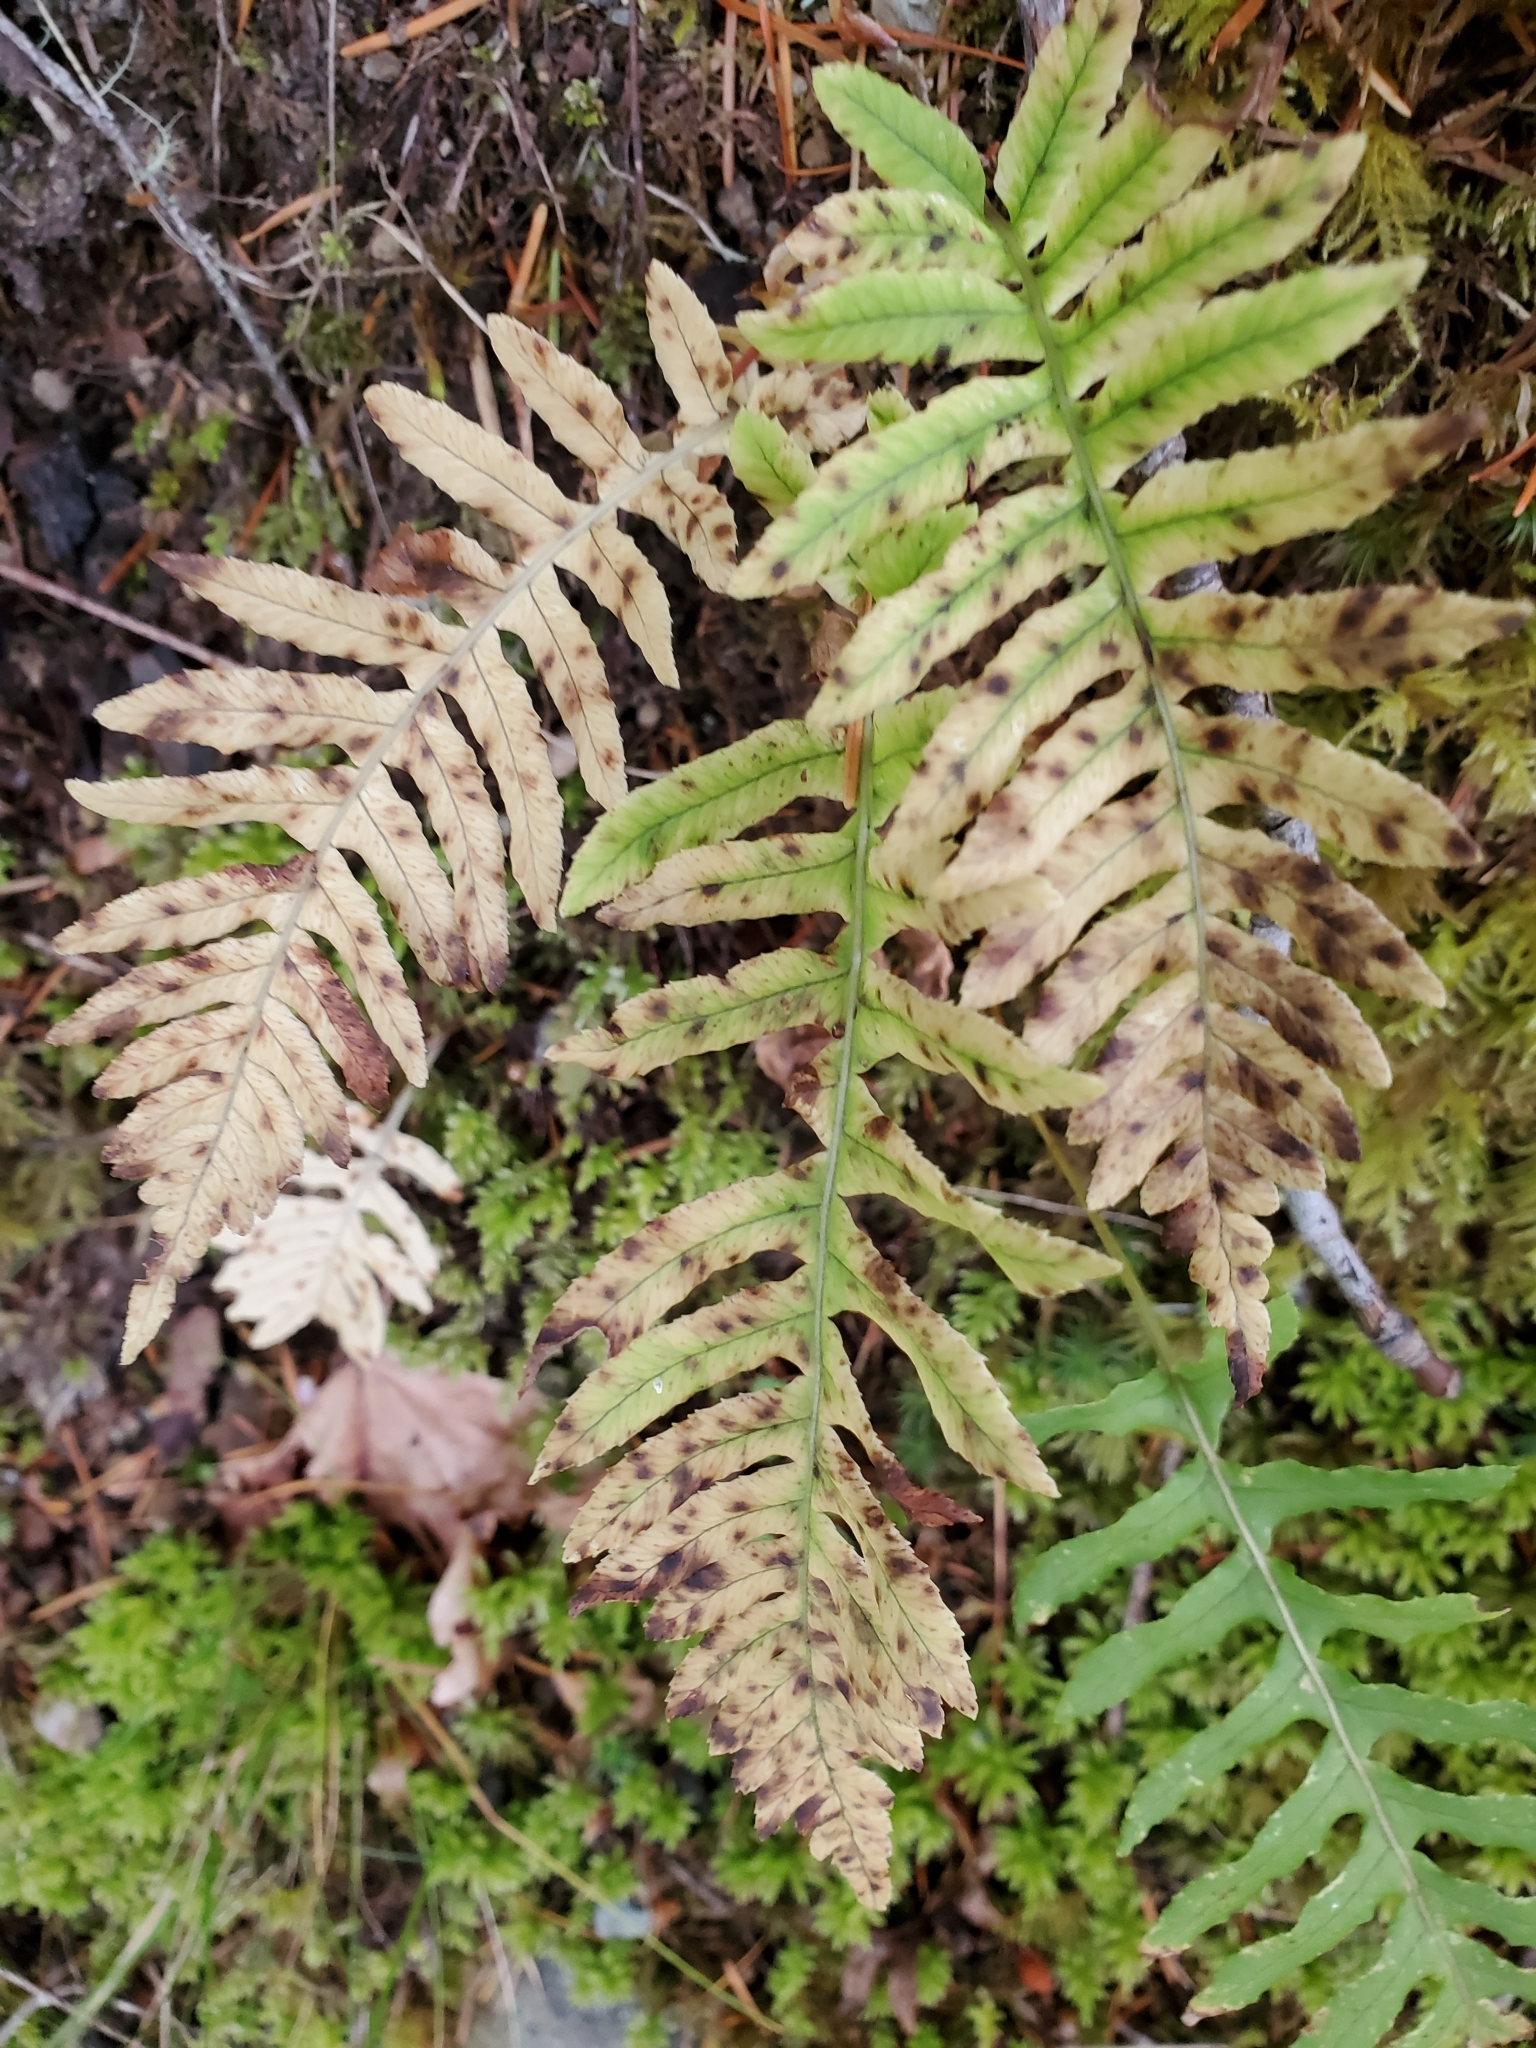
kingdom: Plantae
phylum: Tracheophyta
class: Polypodiopsida
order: Polypodiales
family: Polypodiaceae
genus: Polypodium
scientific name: Polypodium glycyrrhiza
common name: Licorice fern
